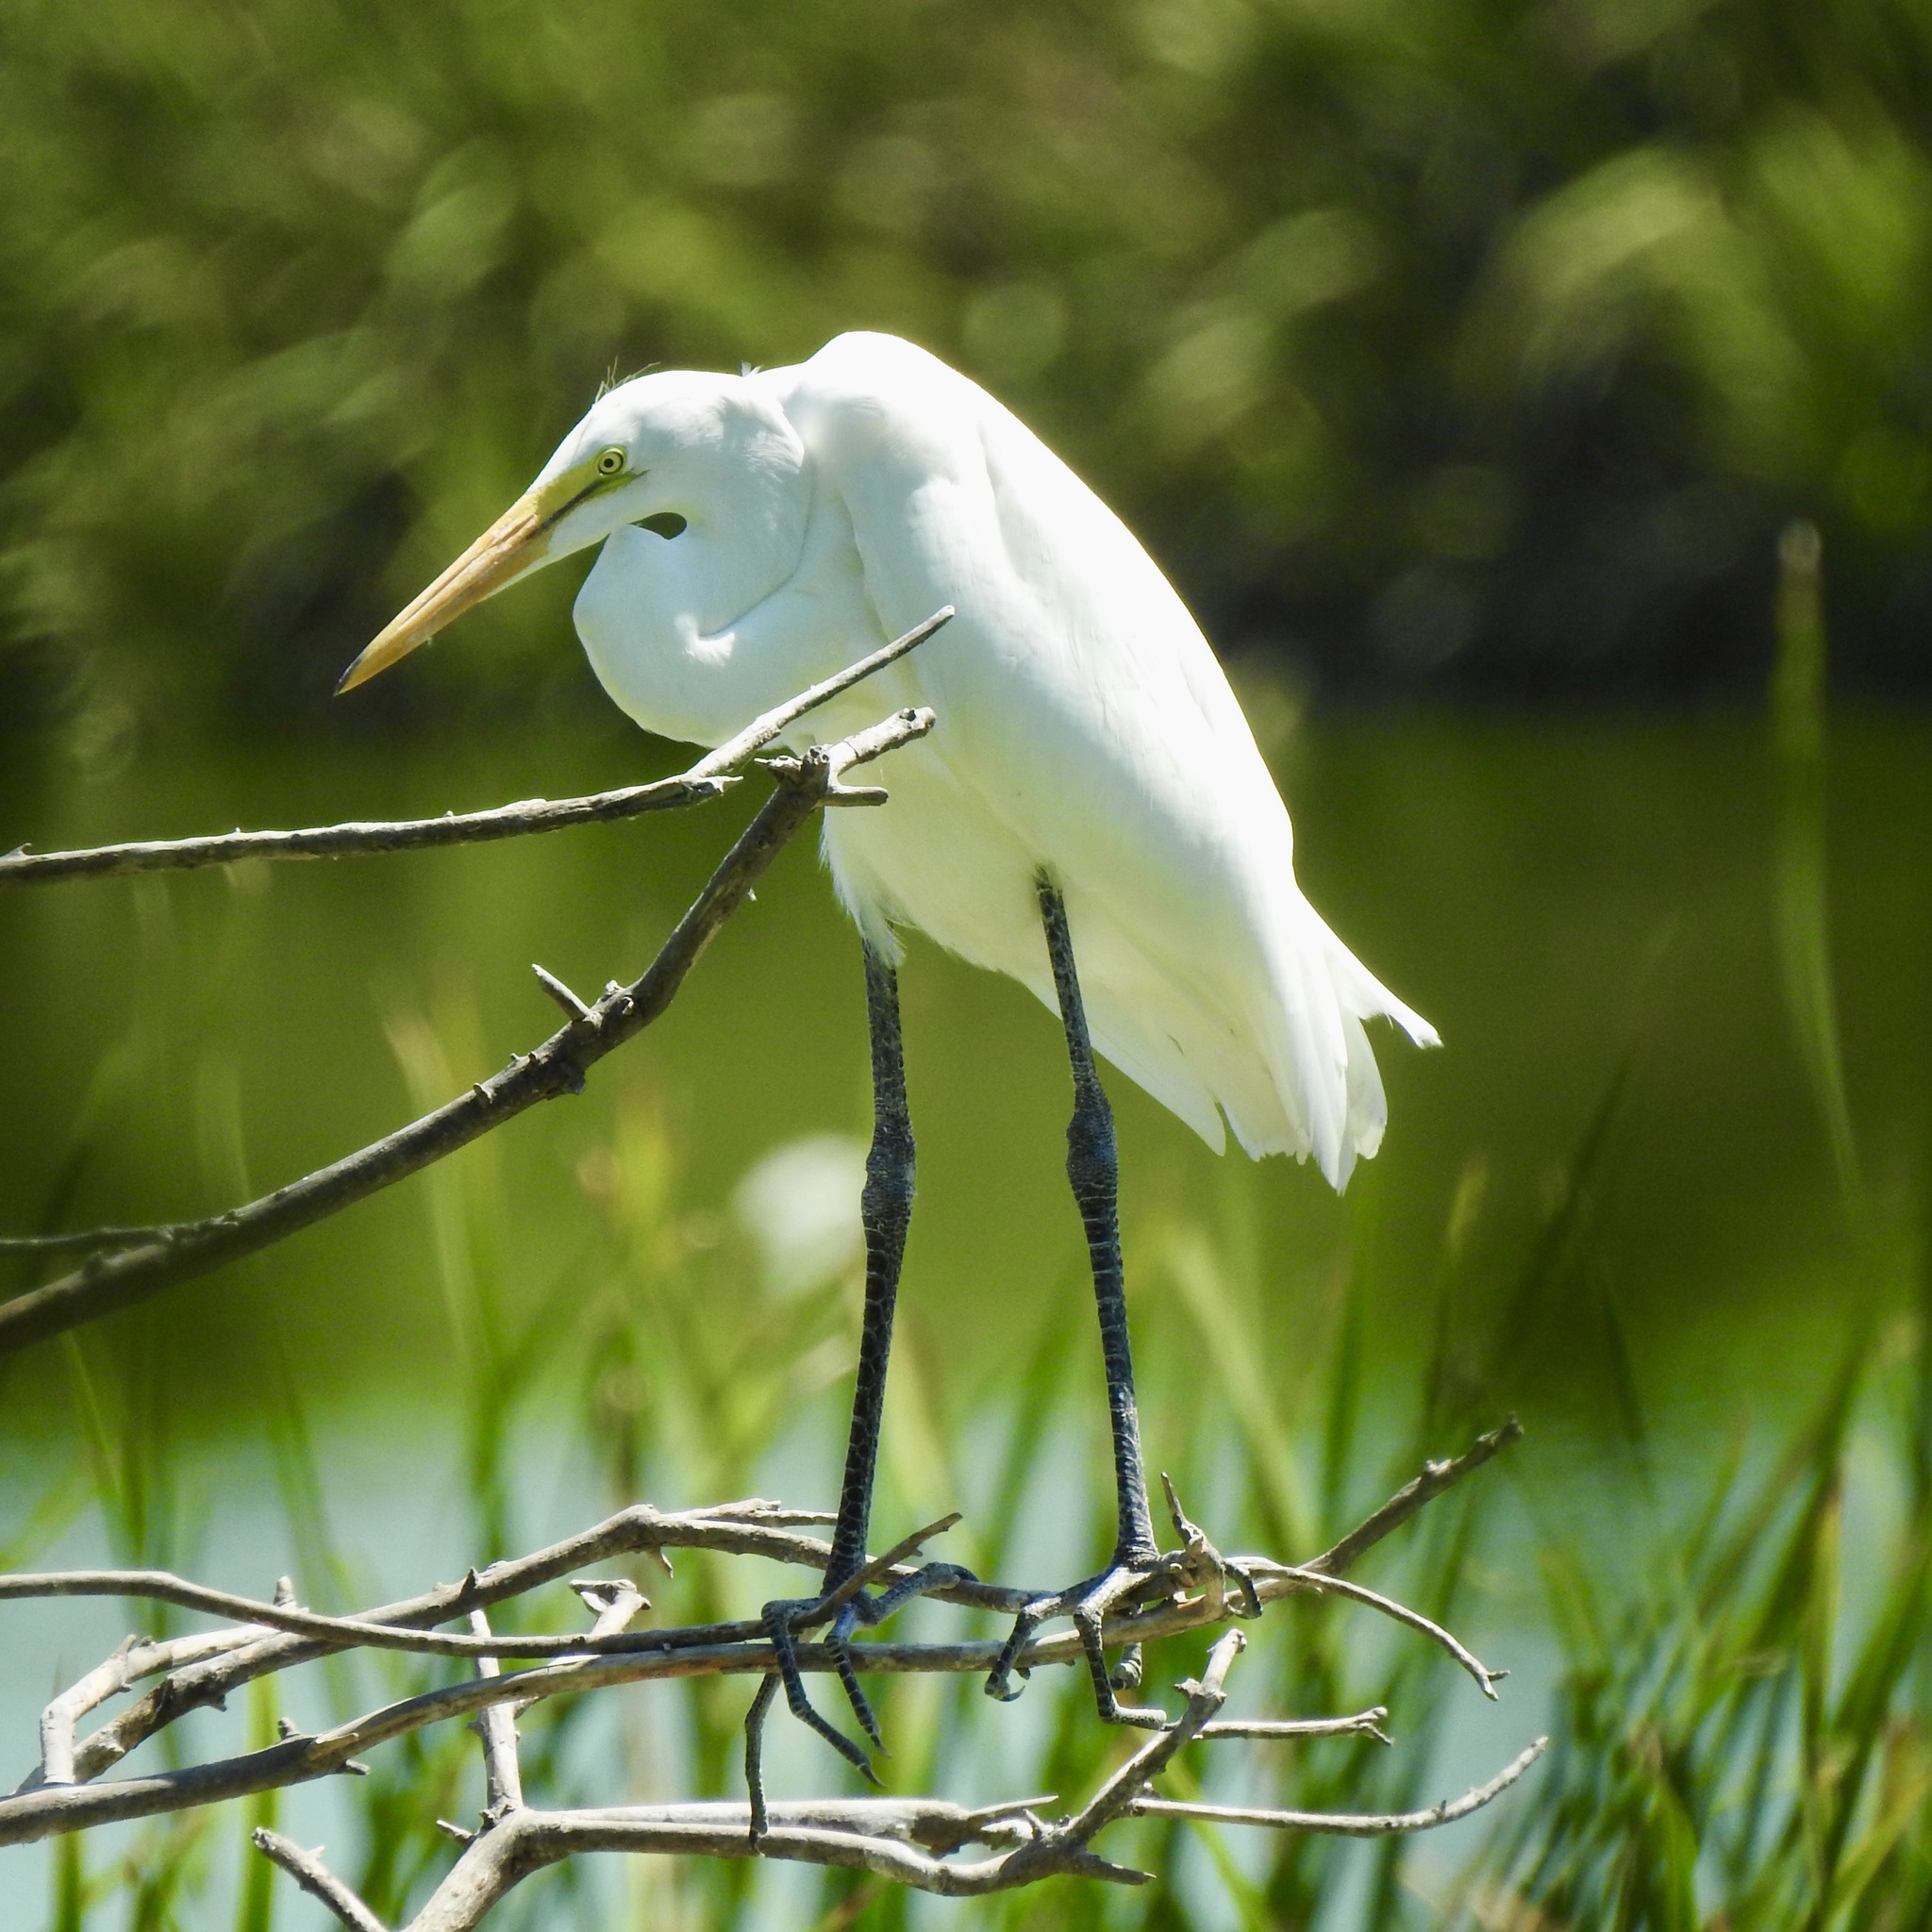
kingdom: Animalia
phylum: Chordata
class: Aves
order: Pelecaniformes
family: Ardeidae
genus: Ardea
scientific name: Ardea alba
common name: Great egret
